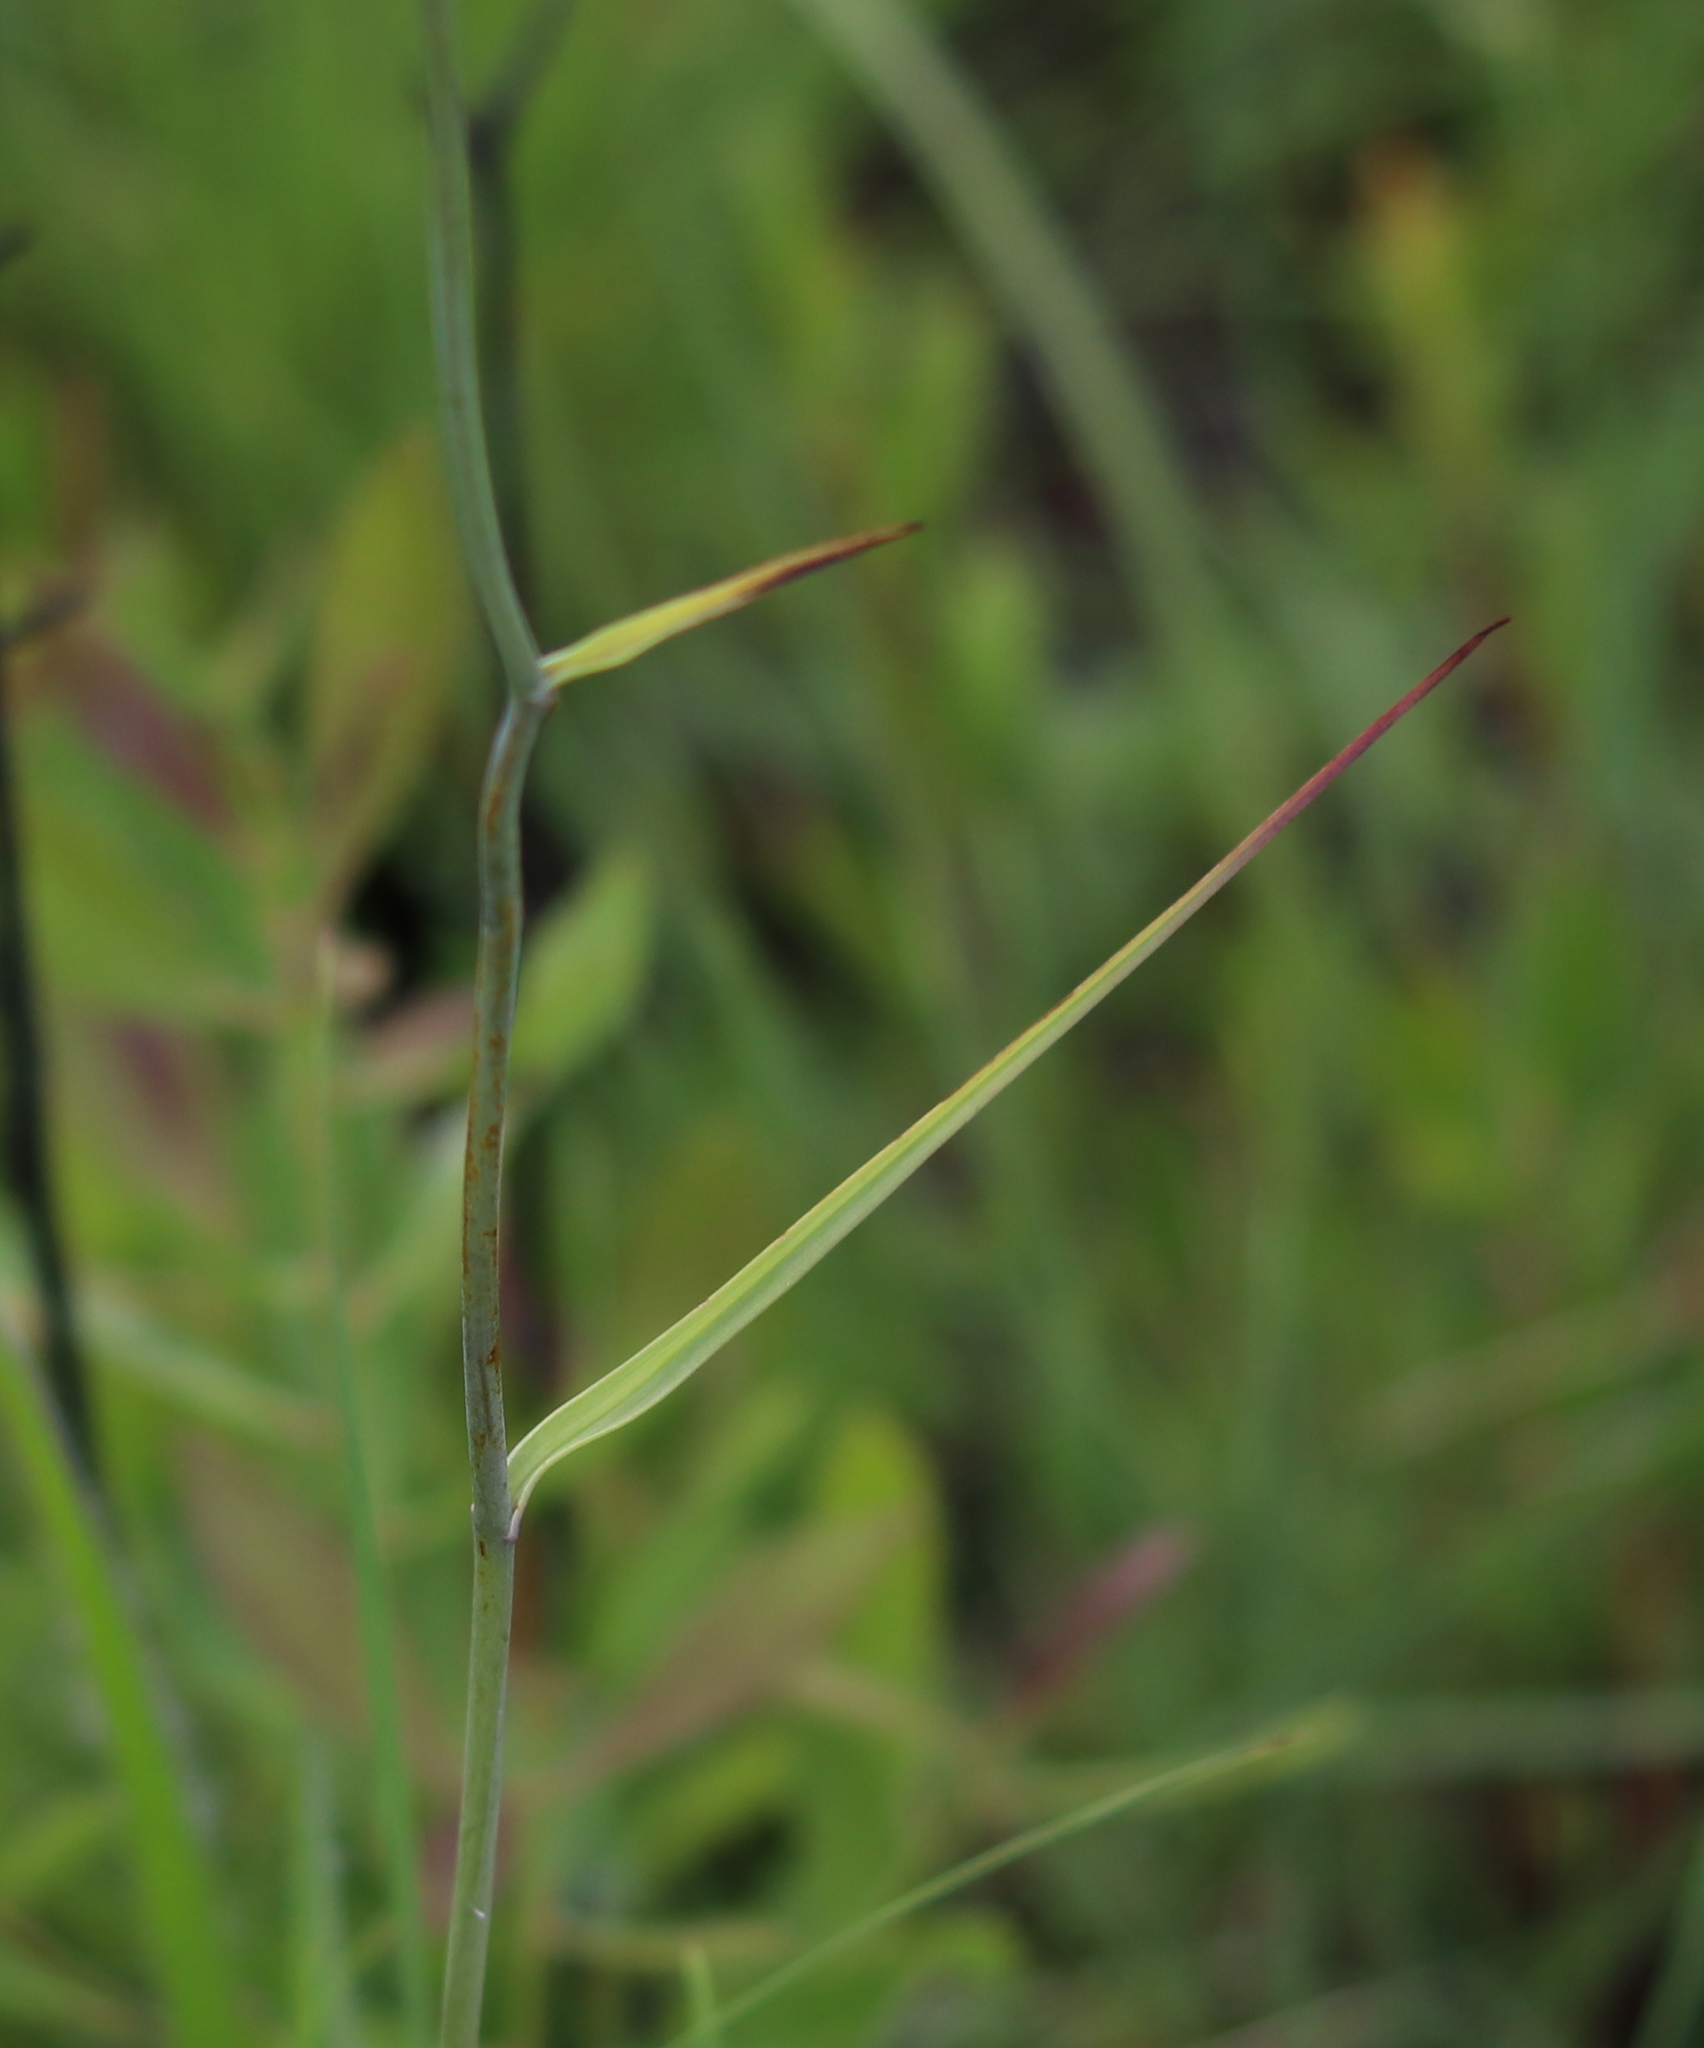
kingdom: Plantae
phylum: Tracheophyta
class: Liliopsida
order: Liliales
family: Melanthiaceae
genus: Stenanthium
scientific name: Stenanthium densum
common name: Crow-poison
